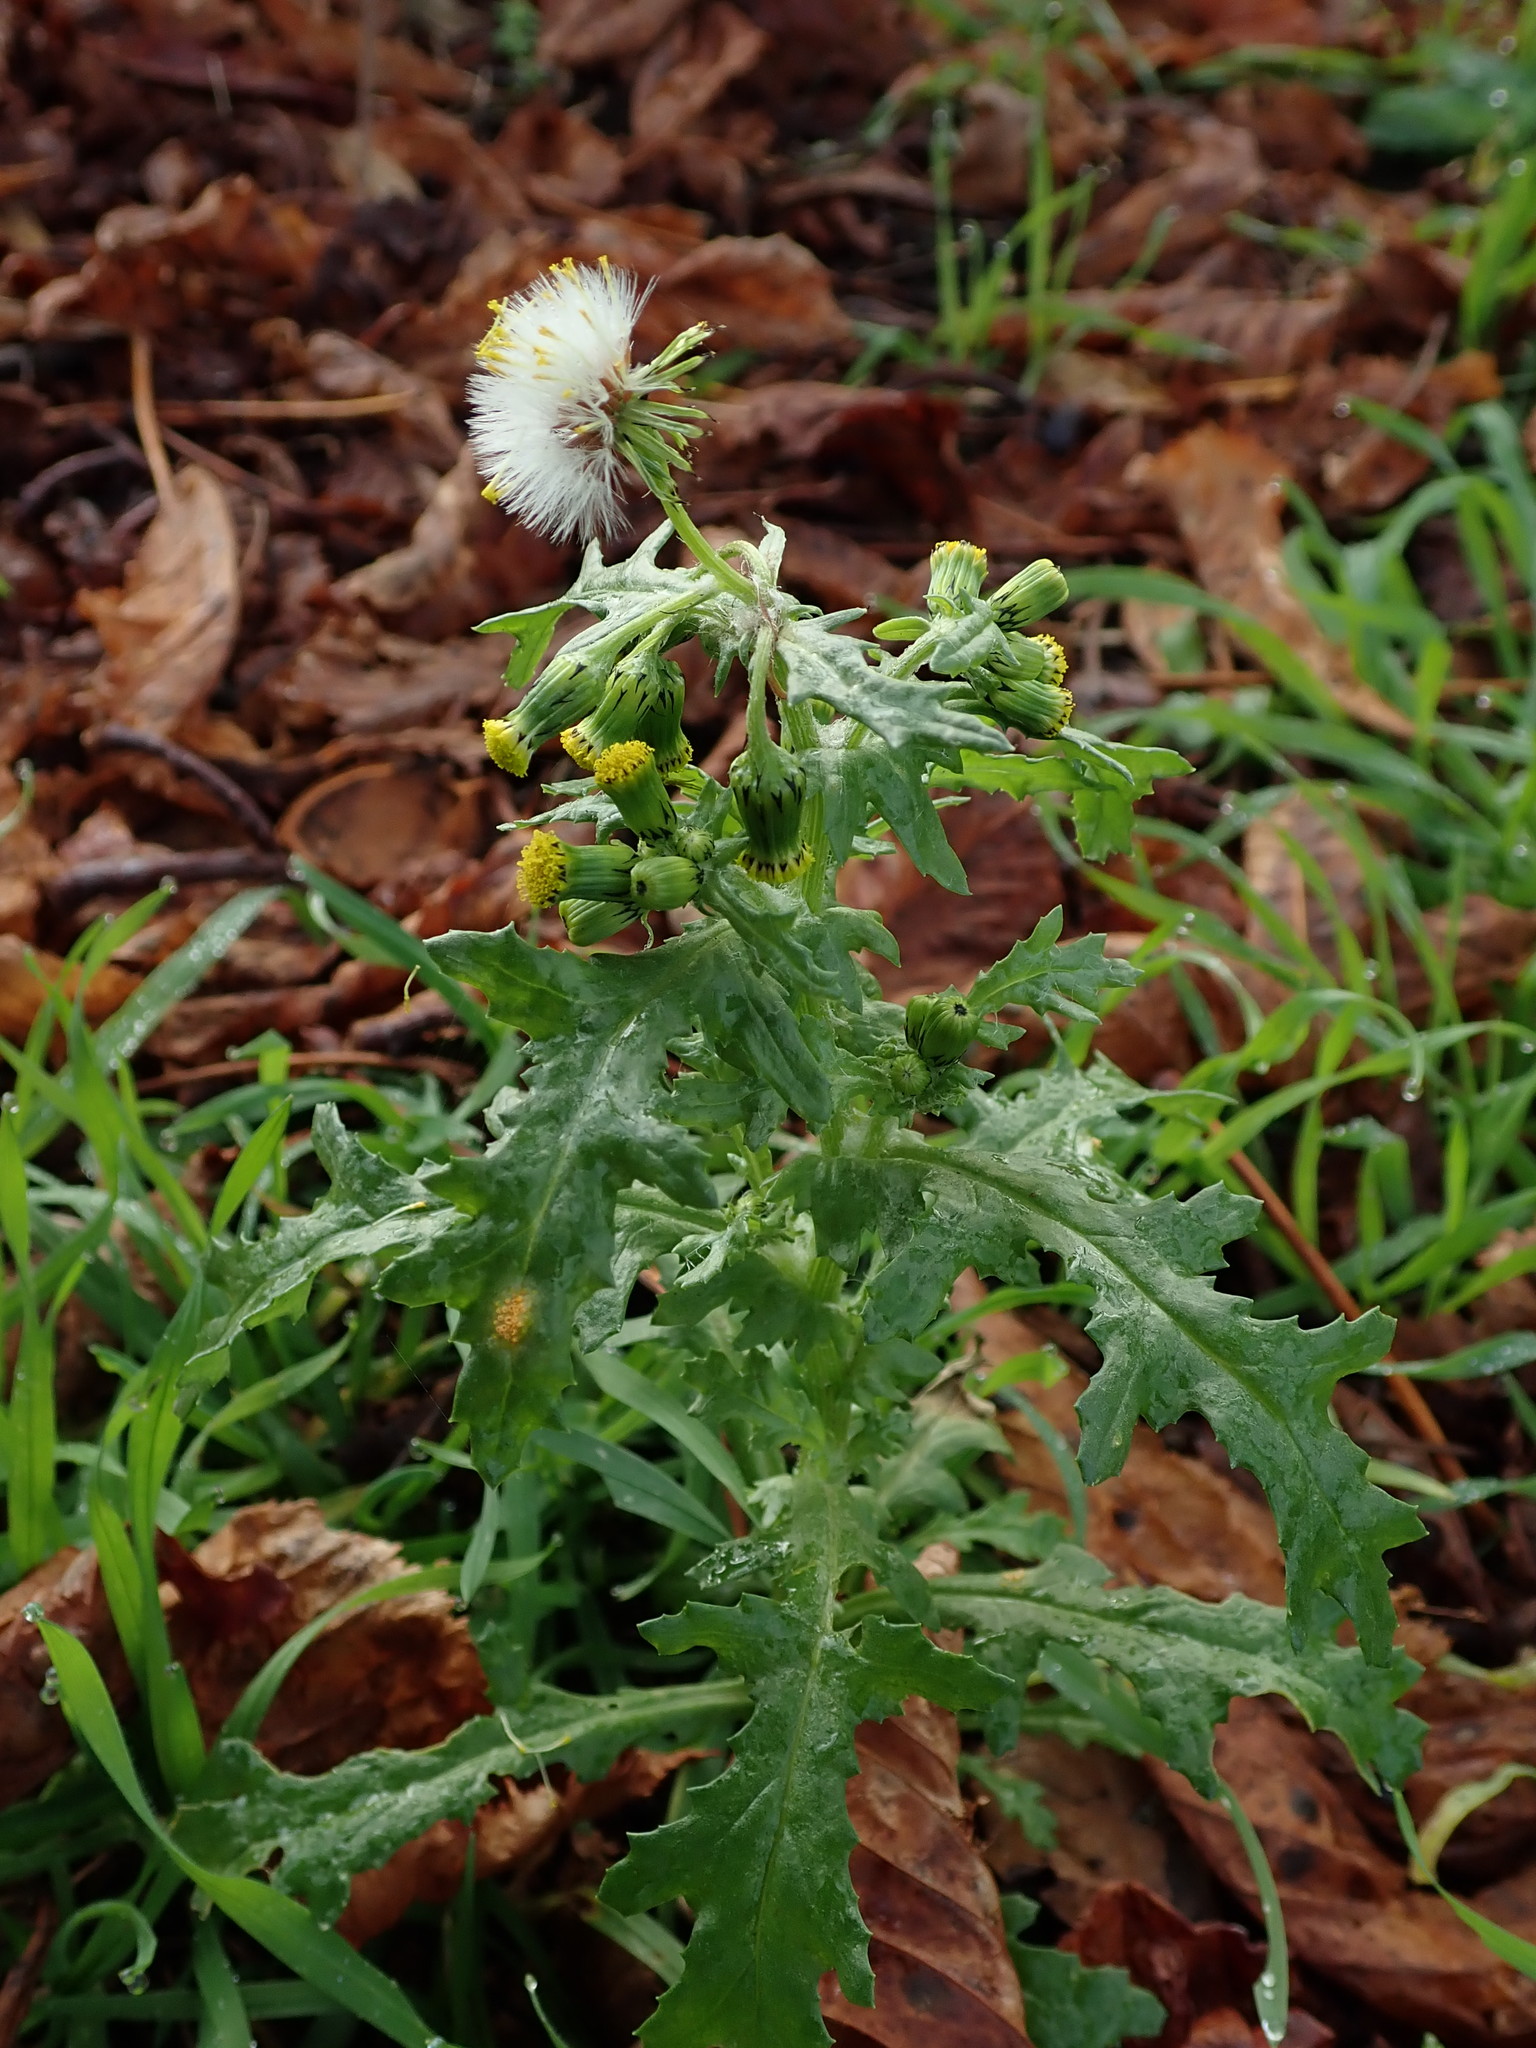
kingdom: Plantae
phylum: Tracheophyta
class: Magnoliopsida
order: Asterales
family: Asteraceae
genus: Senecio
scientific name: Senecio vulgaris
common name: Old-man-in-the-spring
